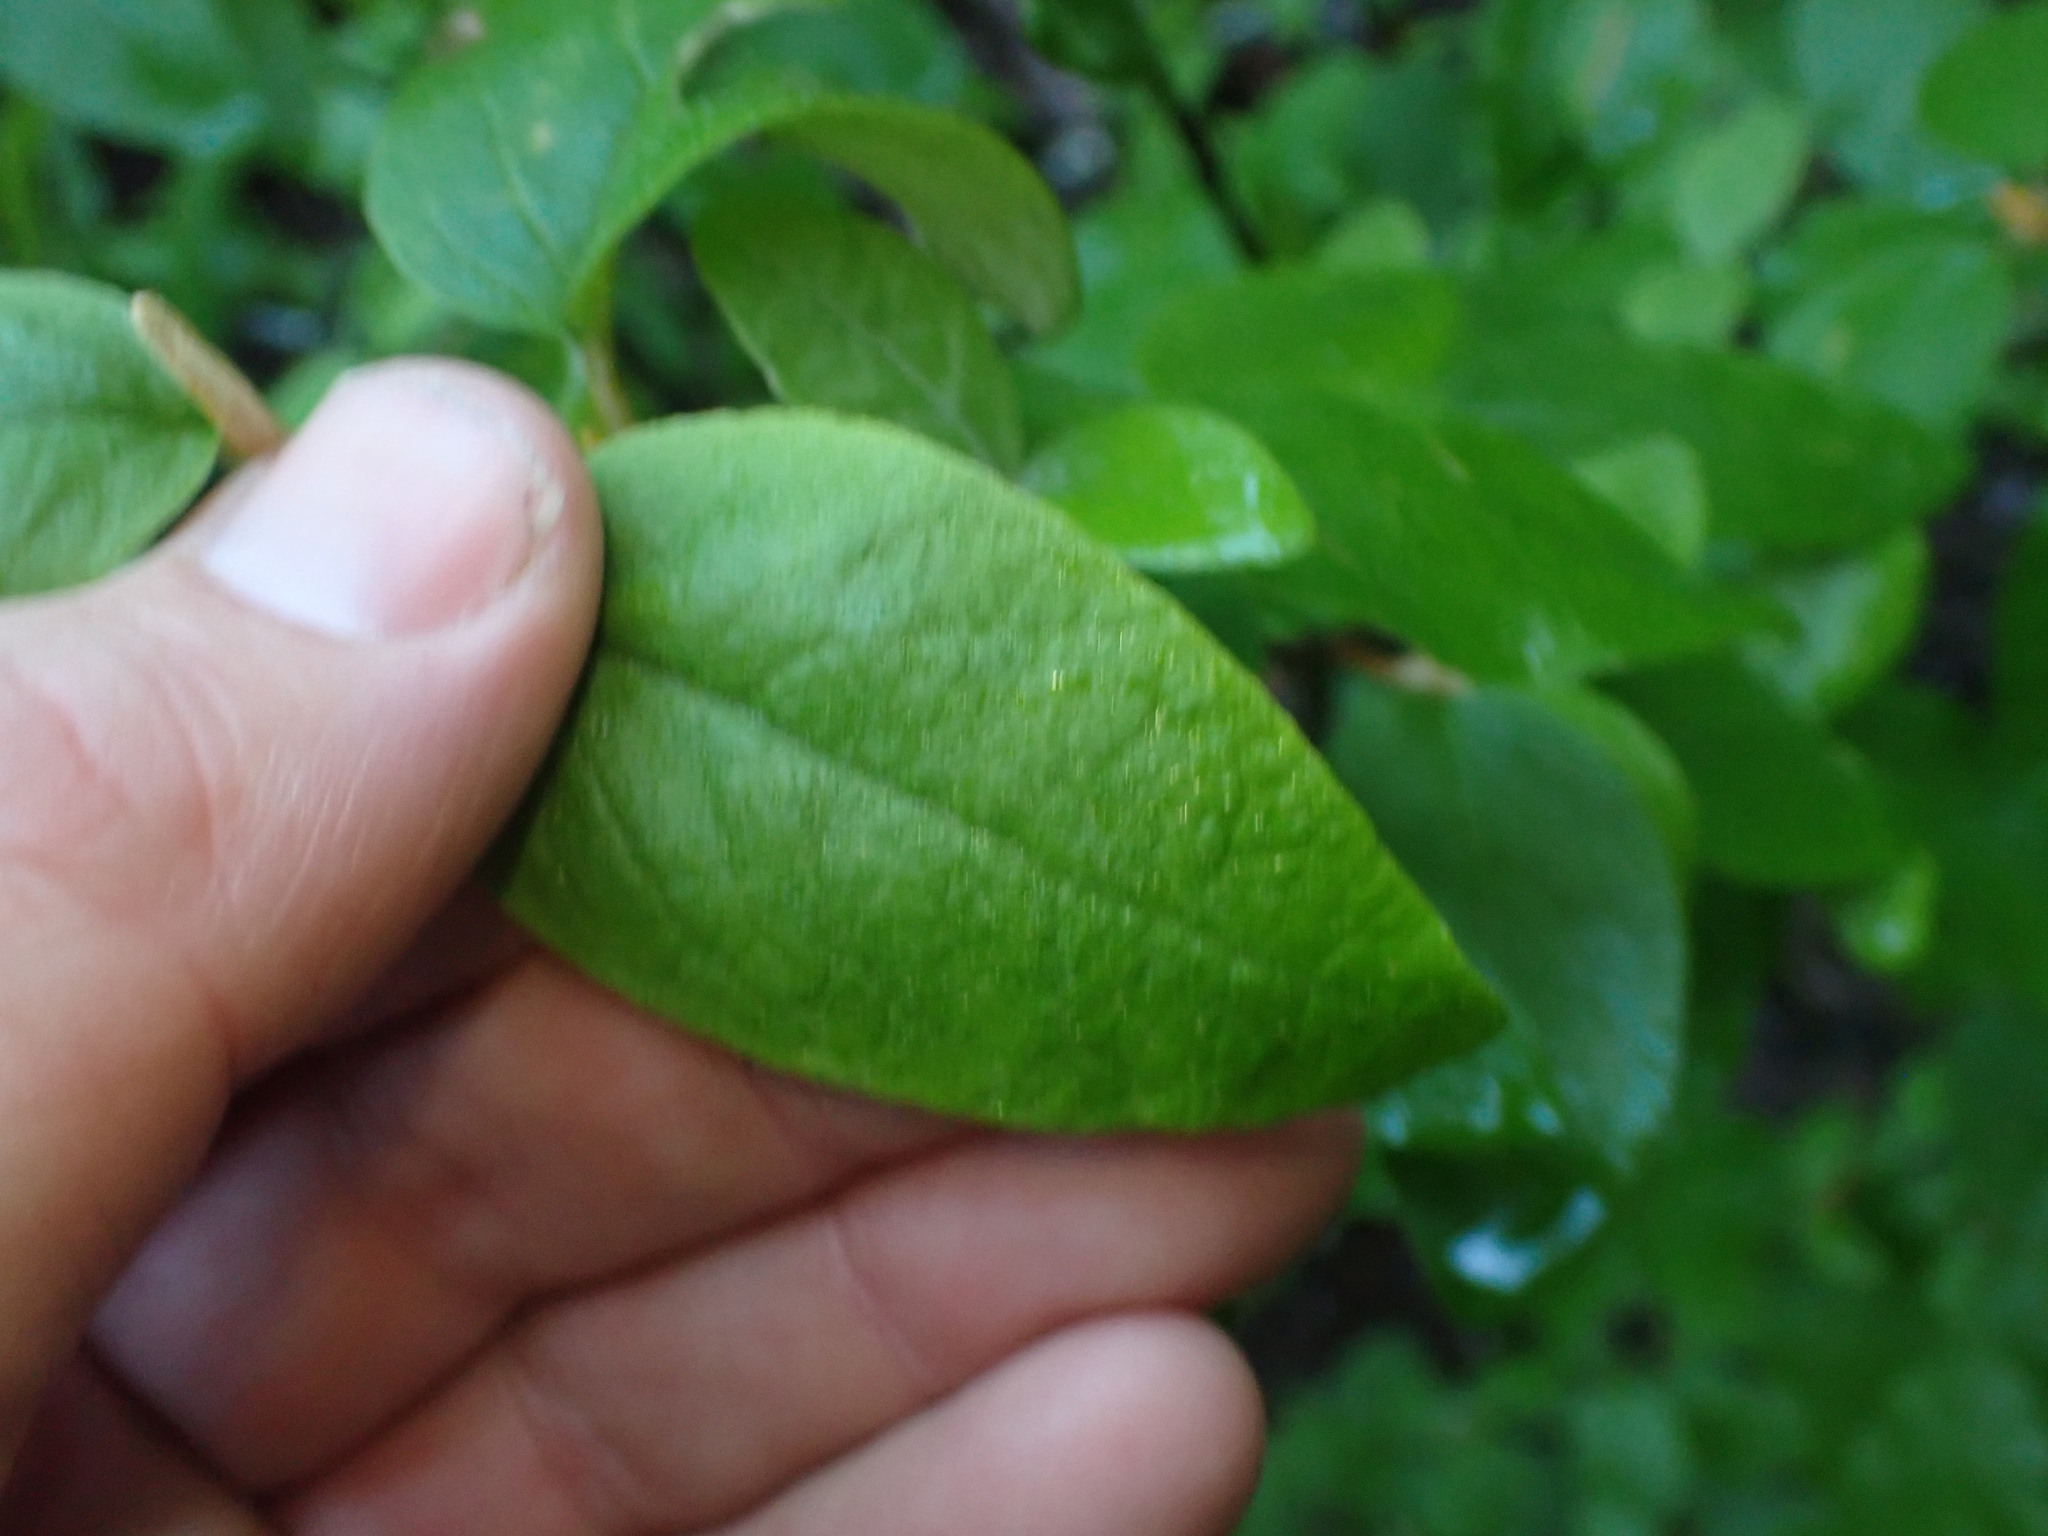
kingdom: Plantae
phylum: Tracheophyta
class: Magnoliopsida
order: Rosales
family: Elaeagnaceae
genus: Shepherdia
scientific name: Shepherdia canadensis
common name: Soapberry
